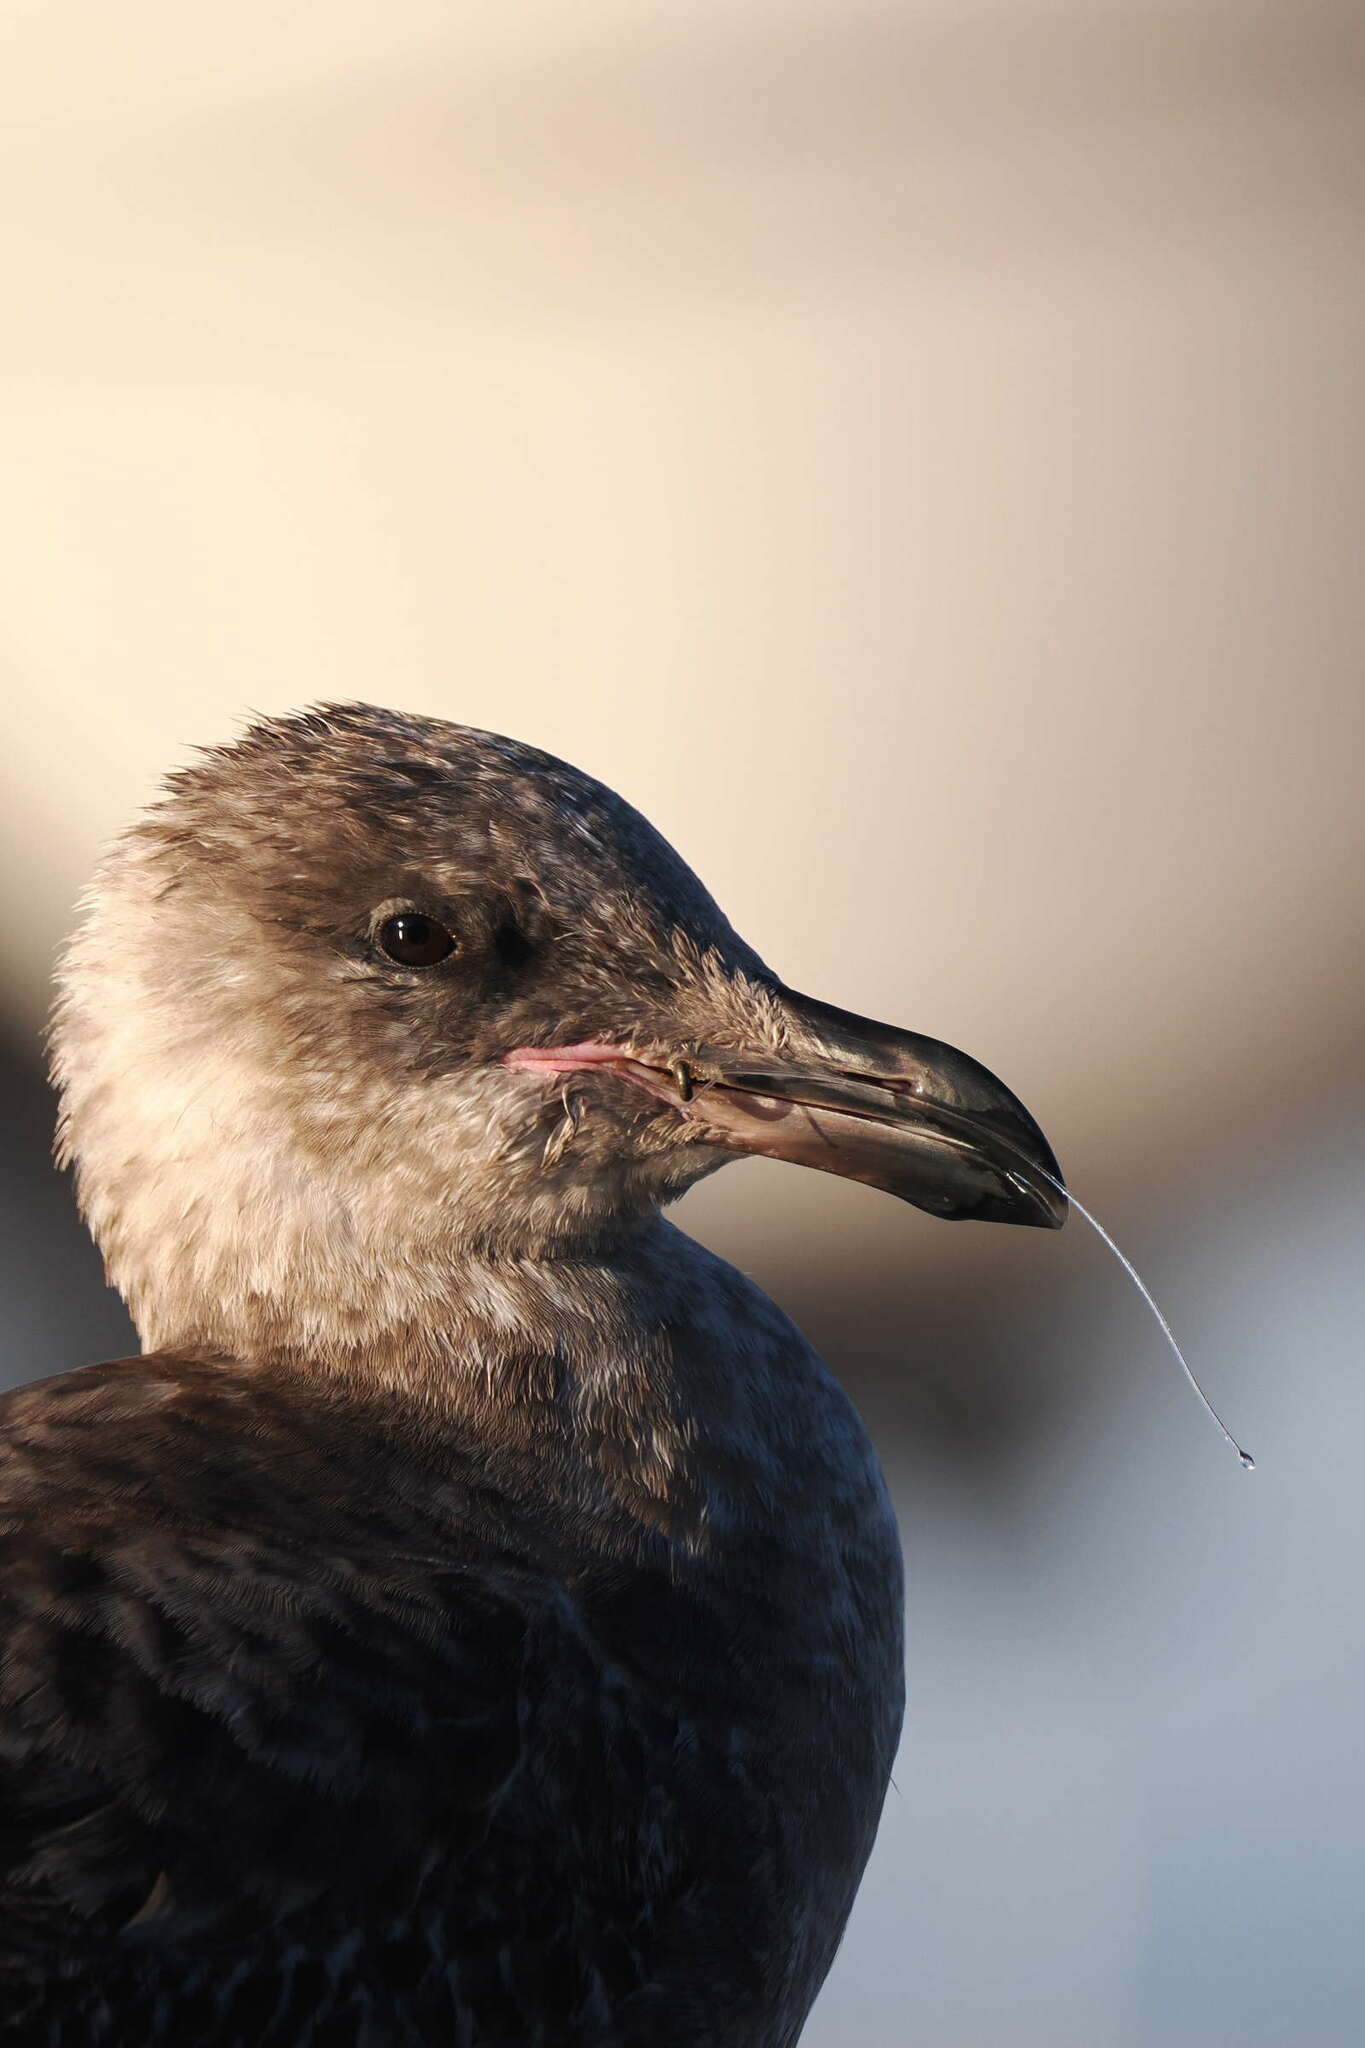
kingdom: Animalia
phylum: Chordata
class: Aves
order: Charadriiformes
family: Laridae
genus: Larus
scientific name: Larus occidentalis
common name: Western gull
